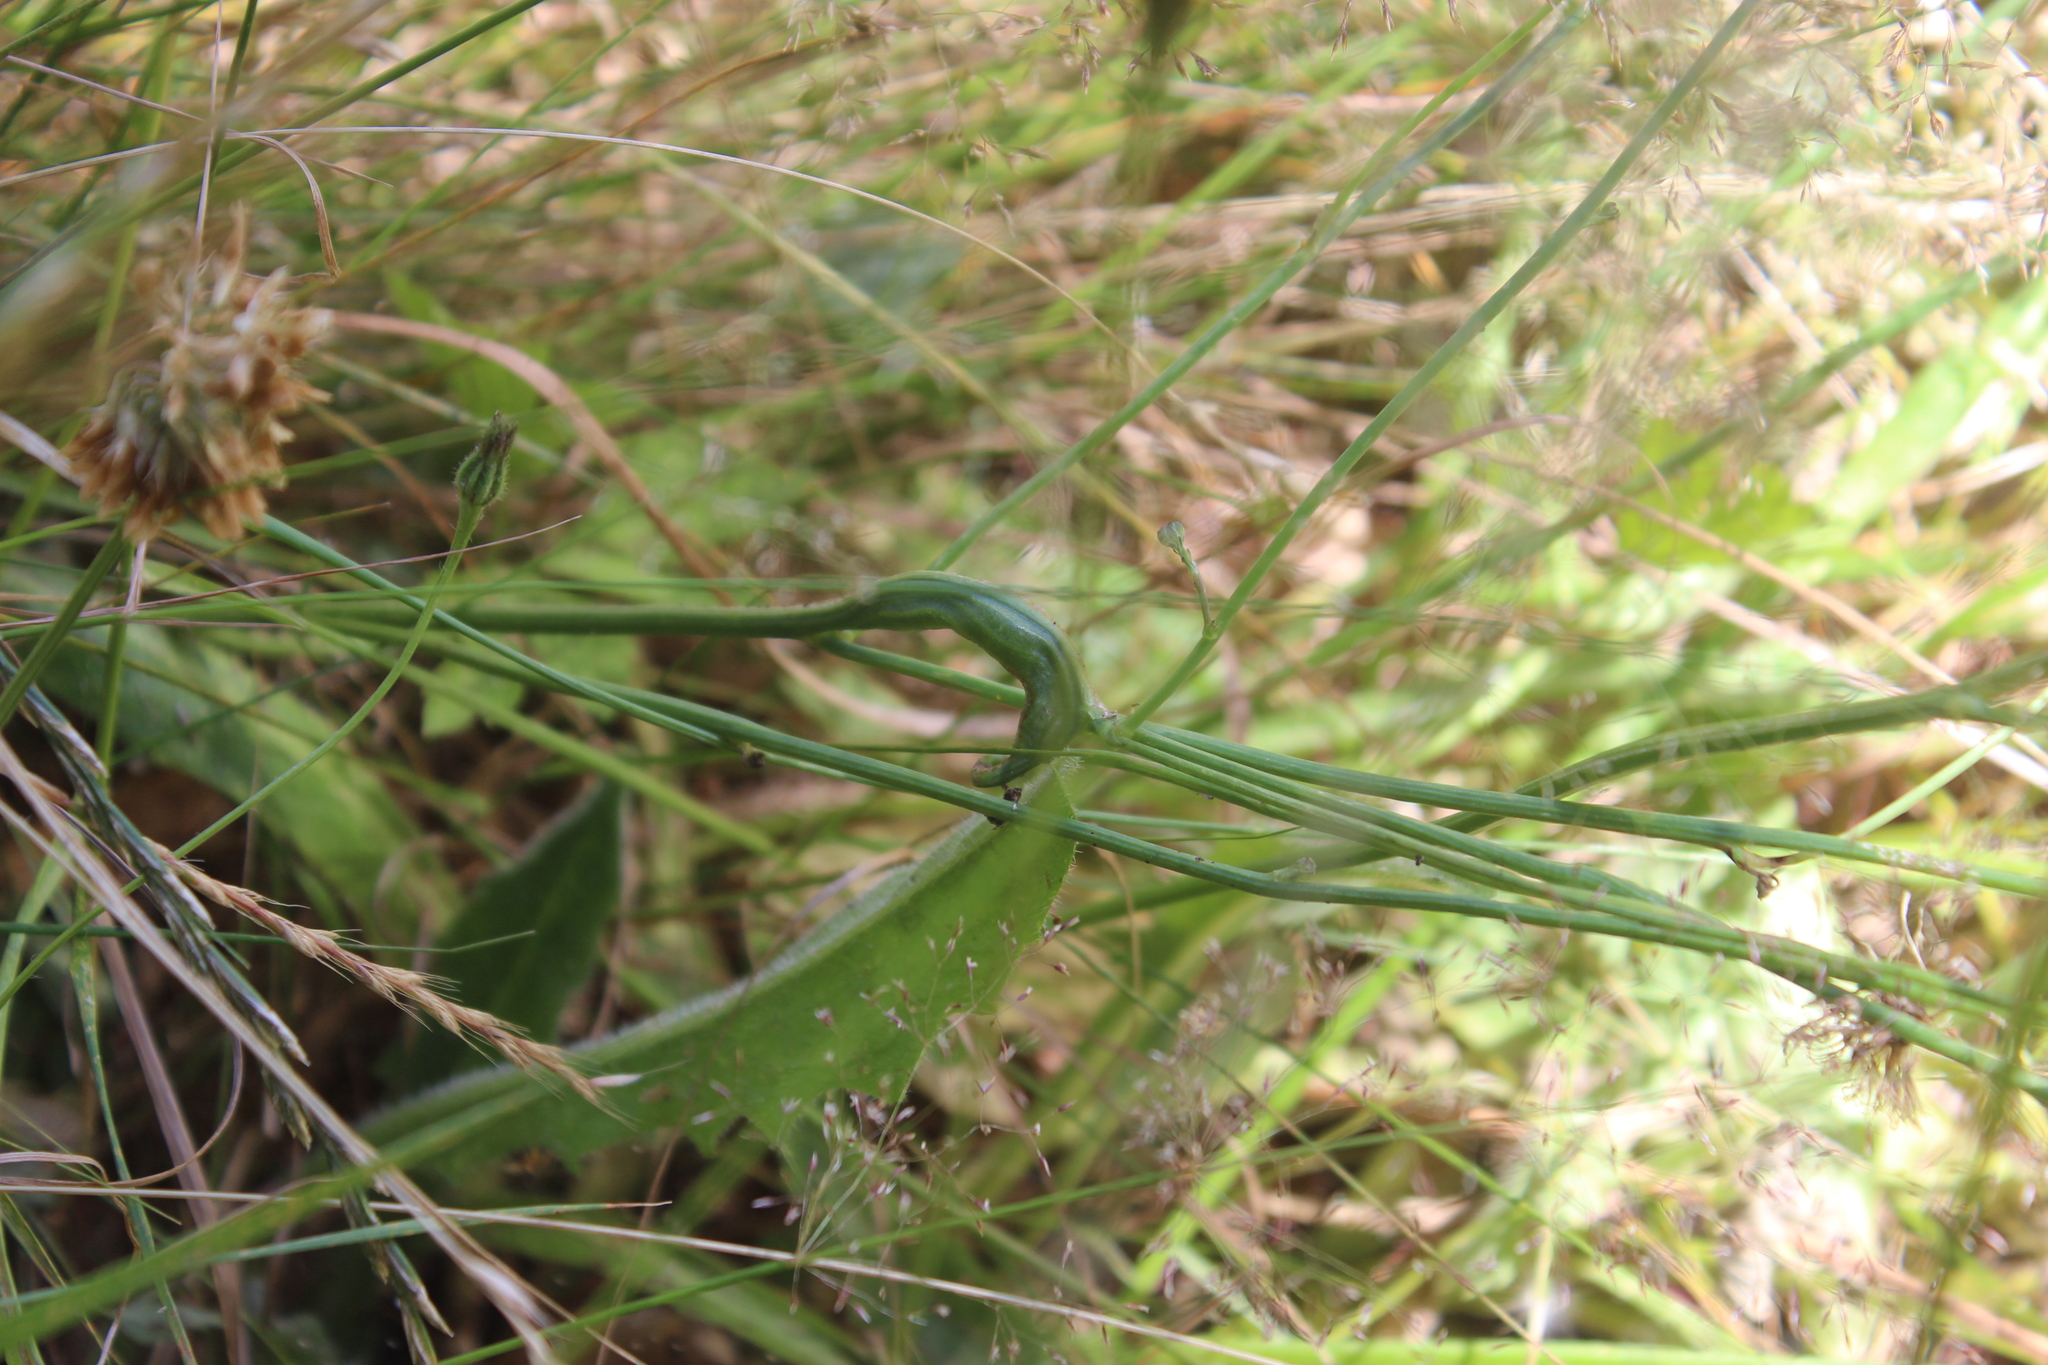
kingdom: Animalia
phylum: Arthropoda
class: Insecta
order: Hymenoptera
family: Cynipidae
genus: Phanacis
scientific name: Phanacis hypochoeridis
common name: Gall wasp
